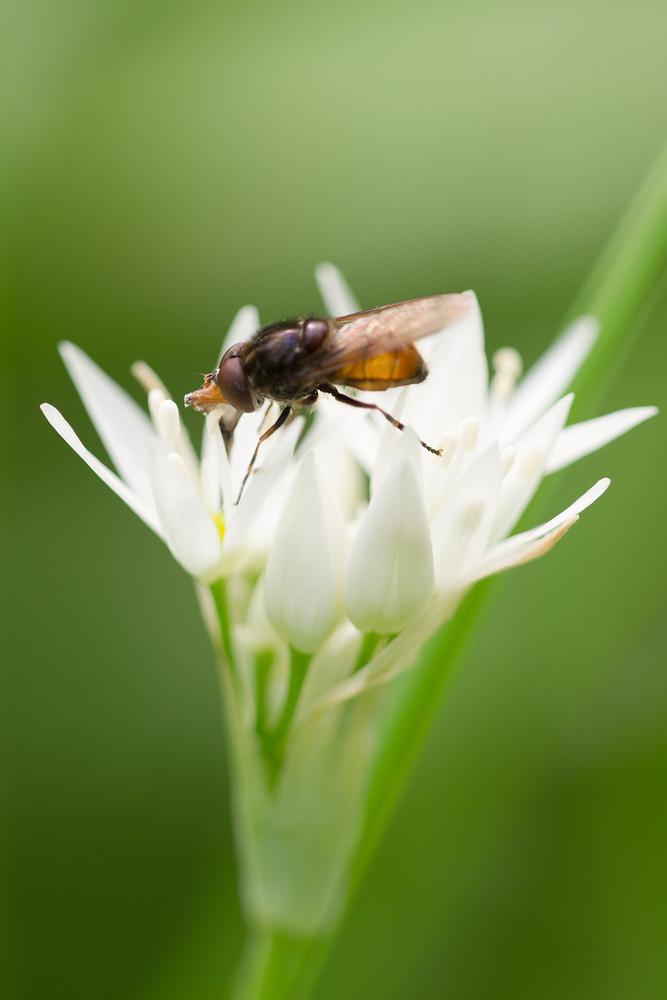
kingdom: Animalia
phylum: Arthropoda
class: Insecta
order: Diptera
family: Syrphidae
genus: Rhingia
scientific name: Rhingia campestris
